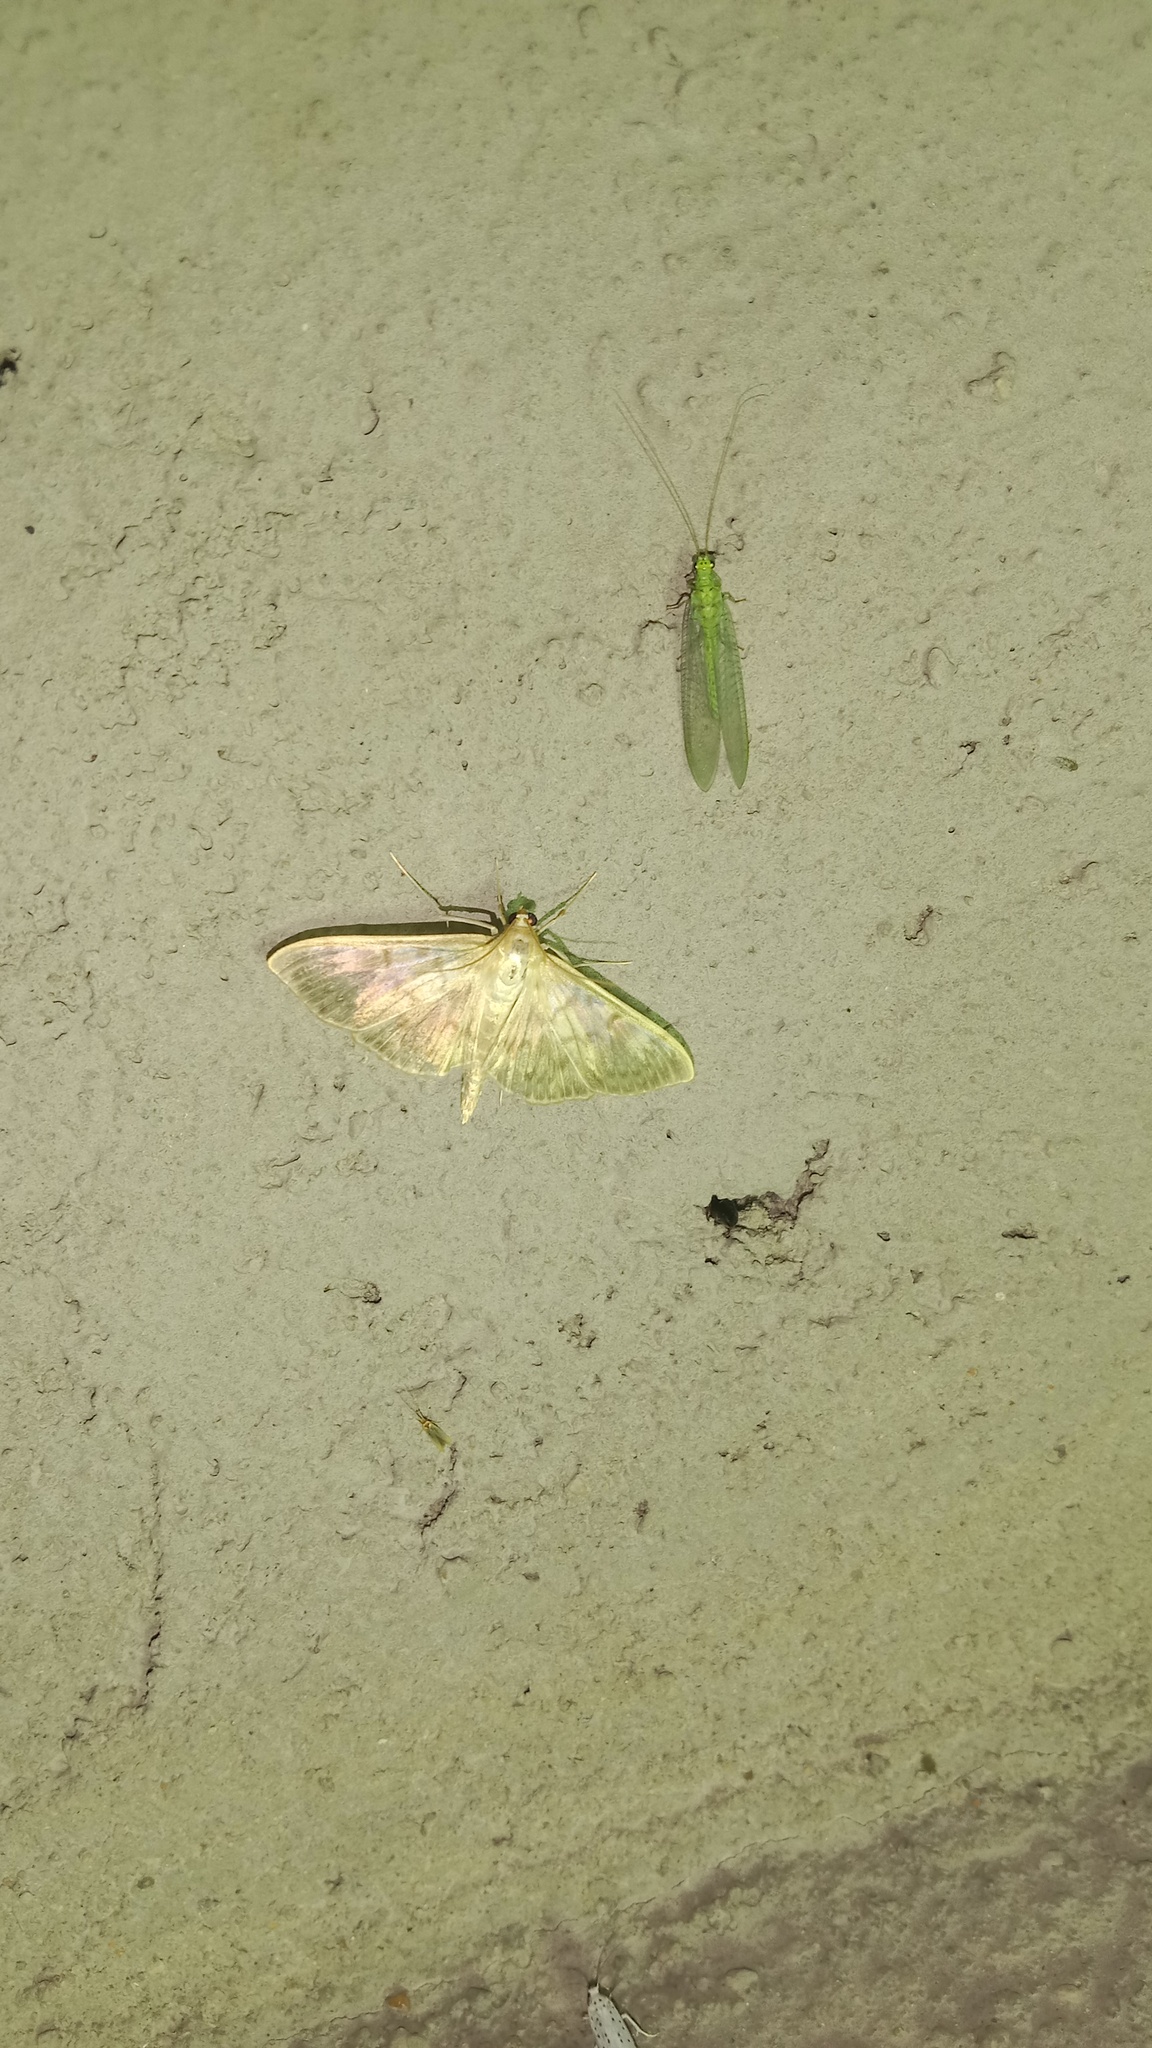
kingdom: Animalia
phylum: Arthropoda
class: Insecta
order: Lepidoptera
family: Crambidae
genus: Patania
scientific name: Patania ruralis
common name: Mother of pearl
